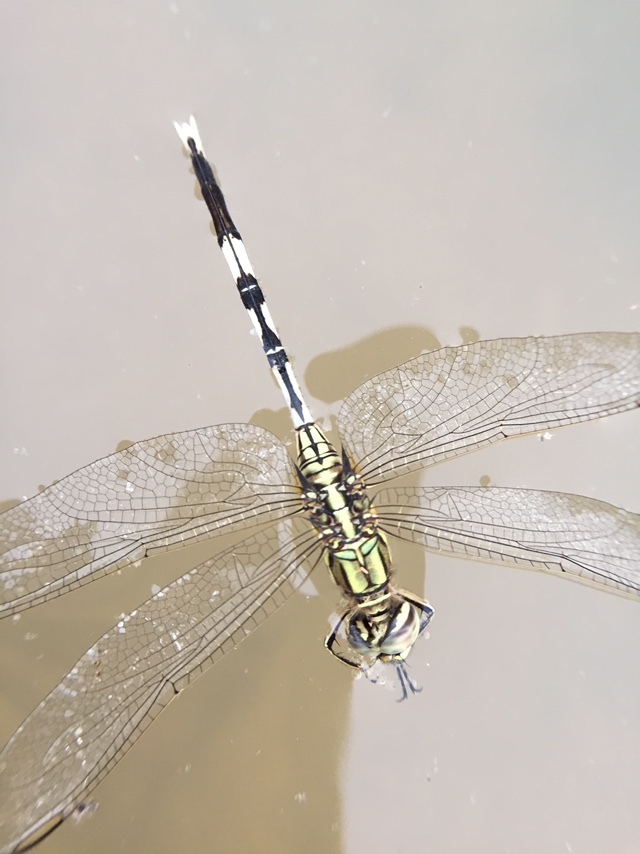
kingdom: Animalia
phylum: Arthropoda
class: Insecta
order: Odonata
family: Libellulidae
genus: Orthetrum
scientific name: Orthetrum sabina
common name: Slender skimmer
